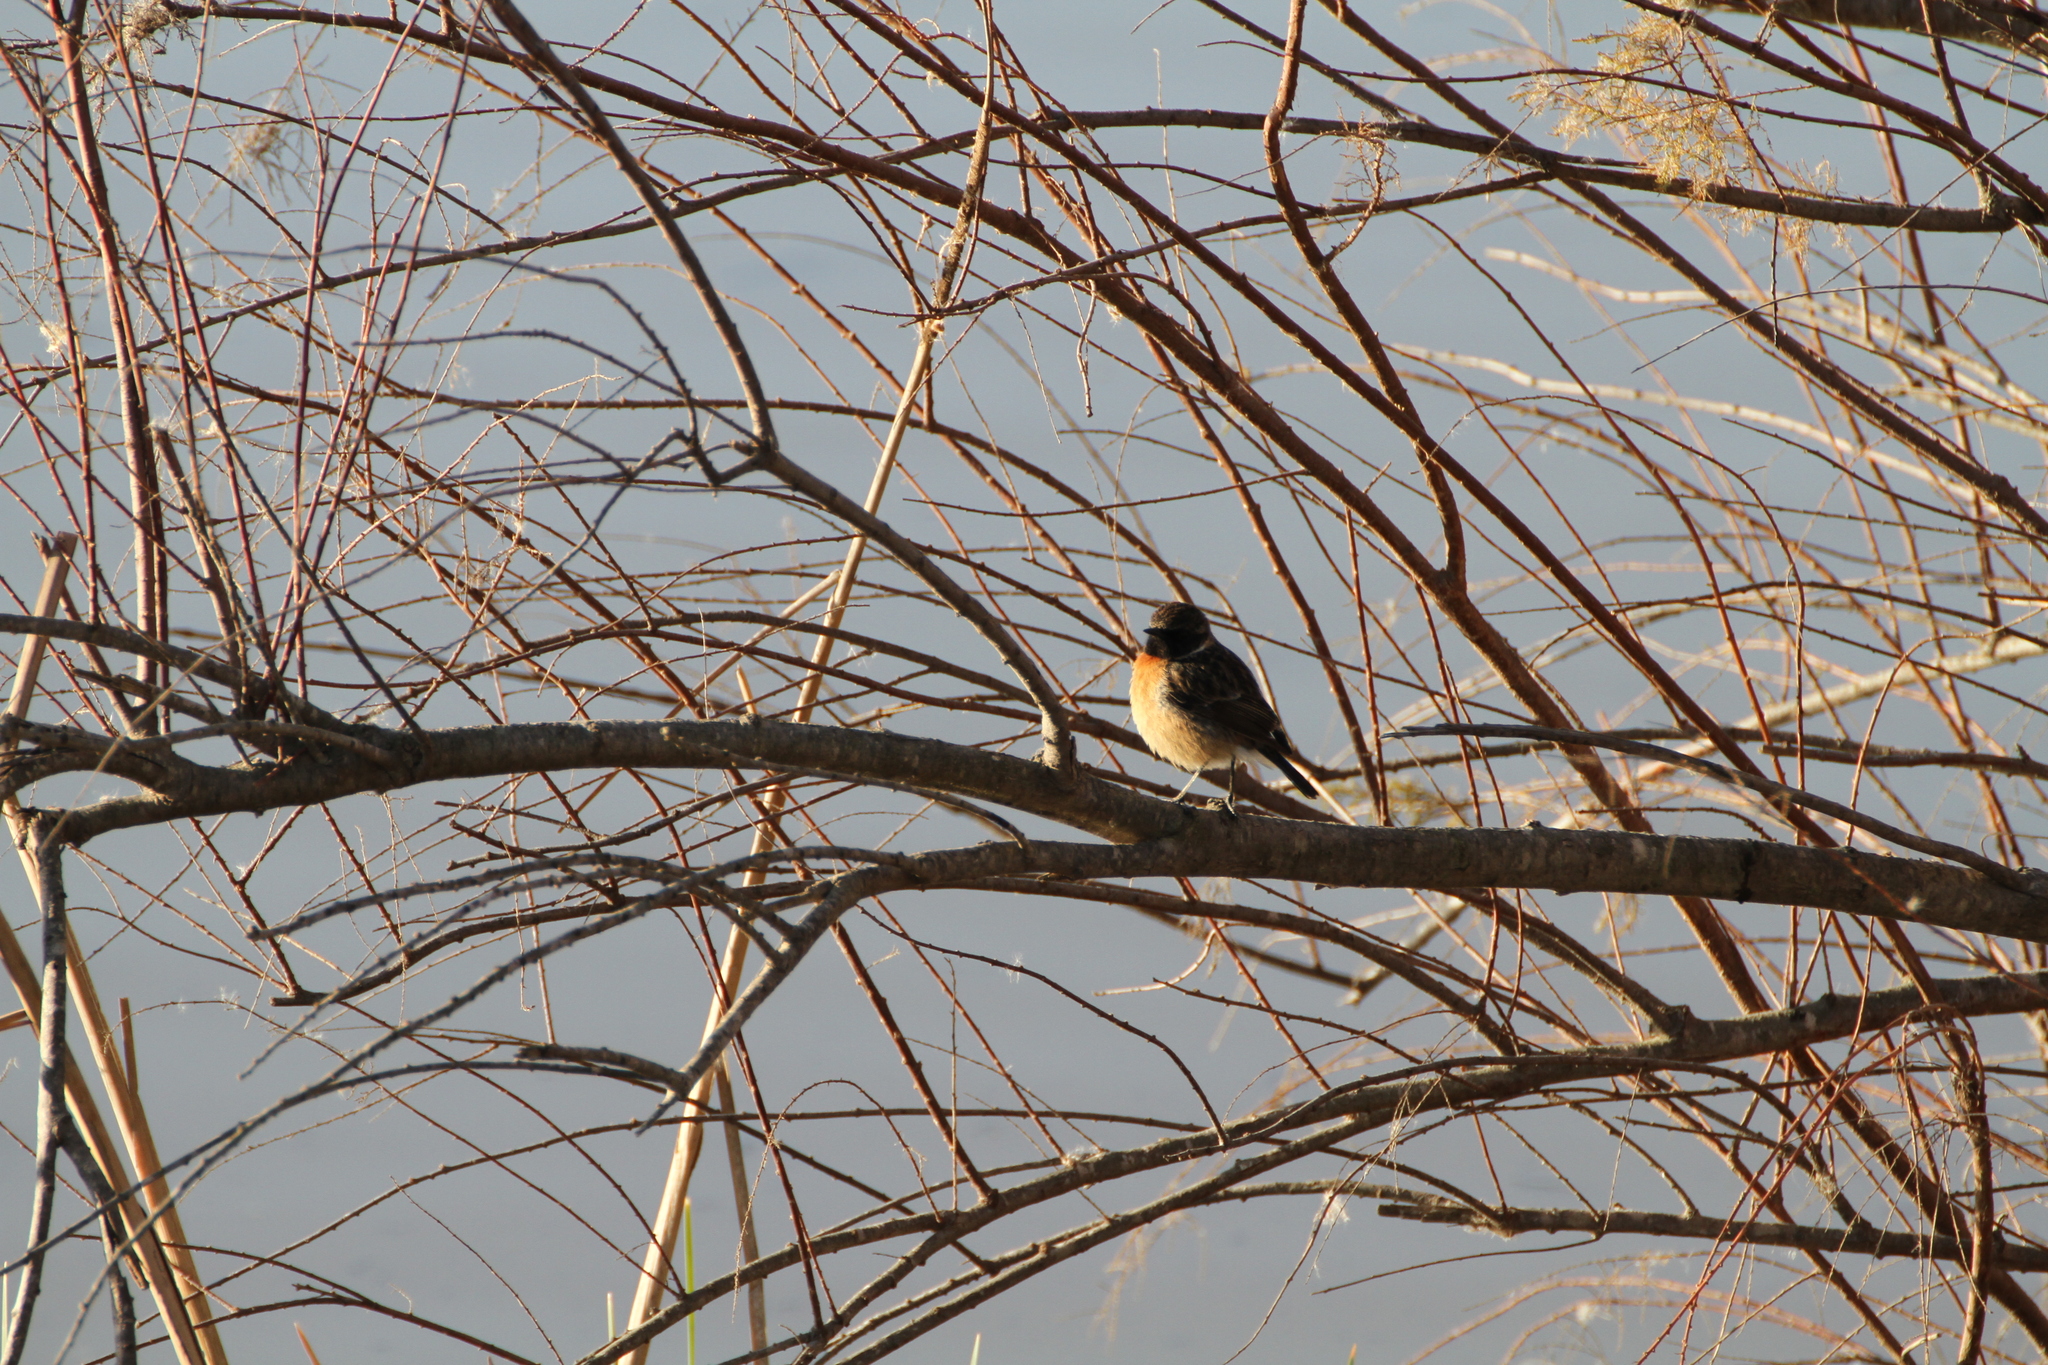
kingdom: Animalia
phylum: Chordata
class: Aves
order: Passeriformes
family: Muscicapidae
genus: Saxicola
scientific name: Saxicola rubicola
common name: European stonechat
